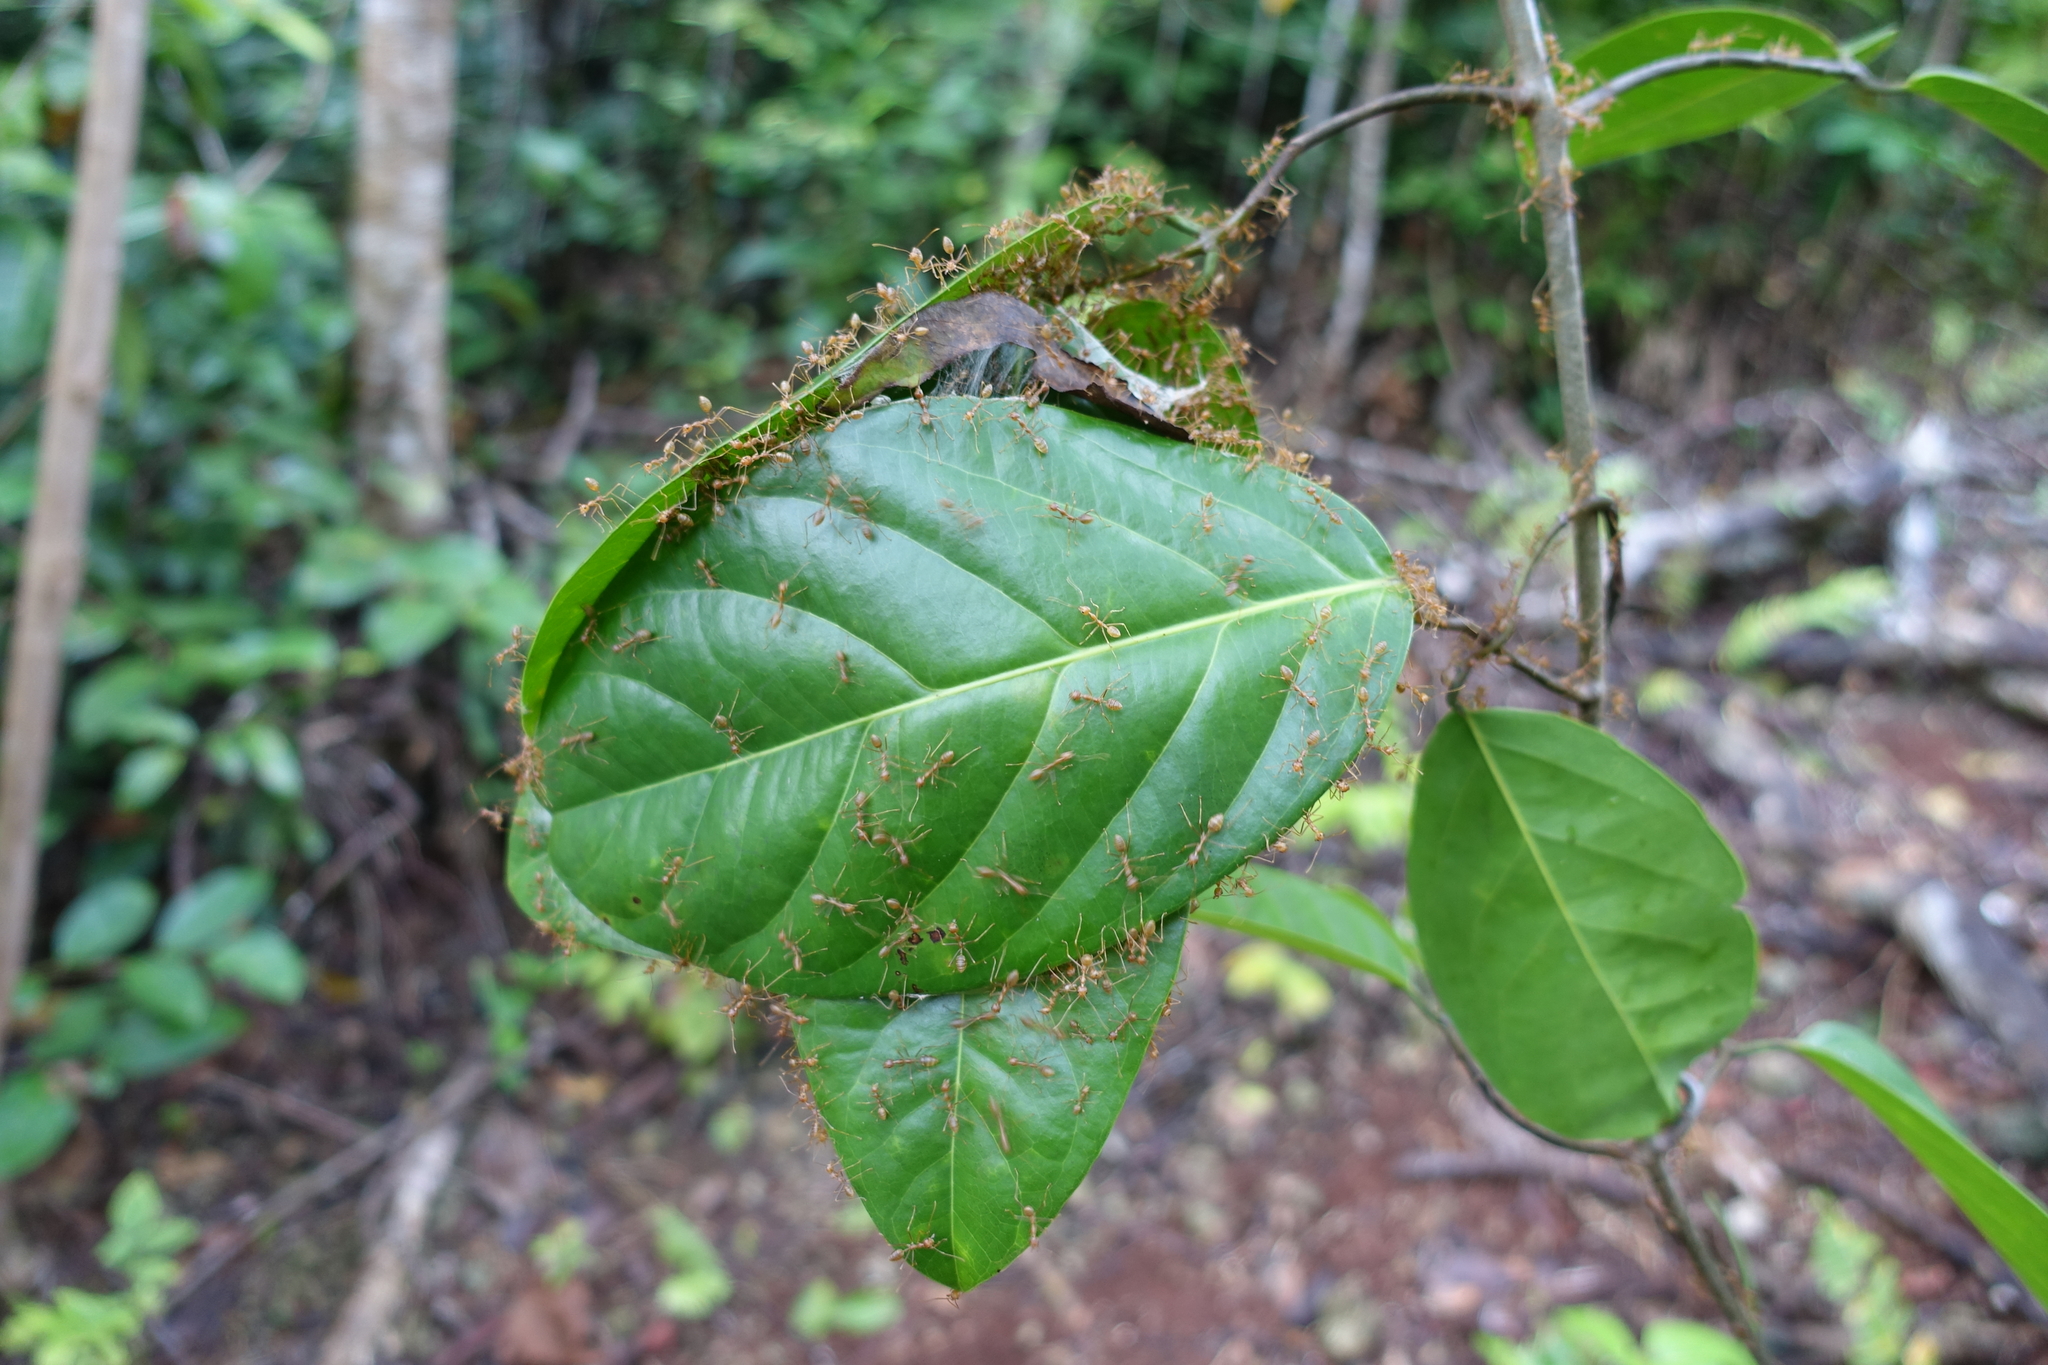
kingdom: Animalia
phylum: Arthropoda
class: Insecta
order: Hymenoptera
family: Formicidae
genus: Oecophylla
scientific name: Oecophylla smaragdina
